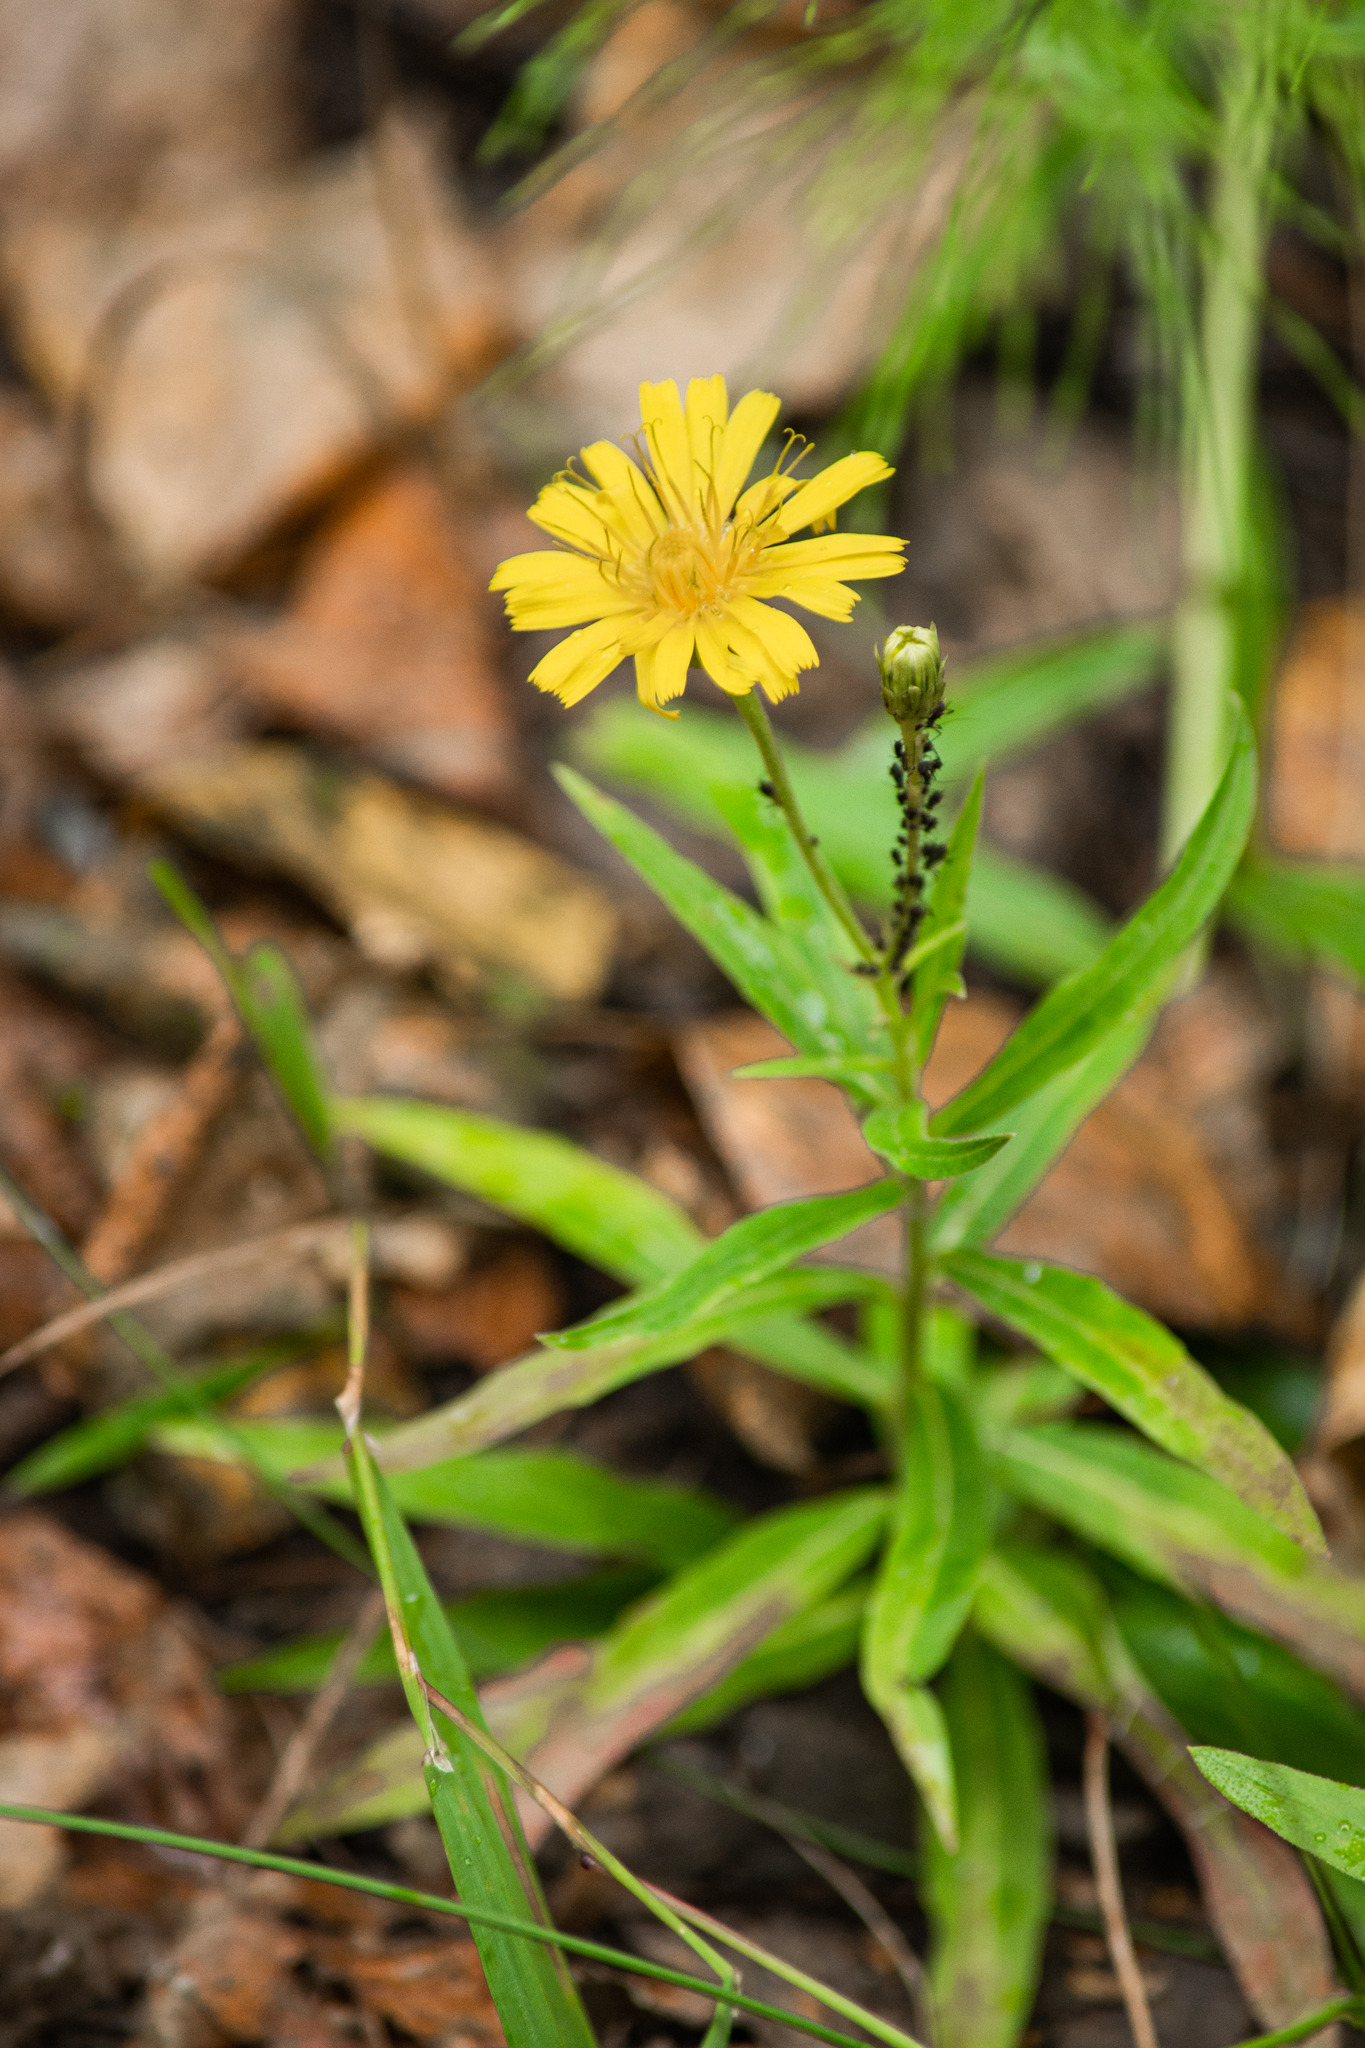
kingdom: Plantae
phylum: Tracheophyta
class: Magnoliopsida
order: Asterales
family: Asteraceae
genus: Hieracium
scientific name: Hieracium umbellatum
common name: Northern hawkweed
